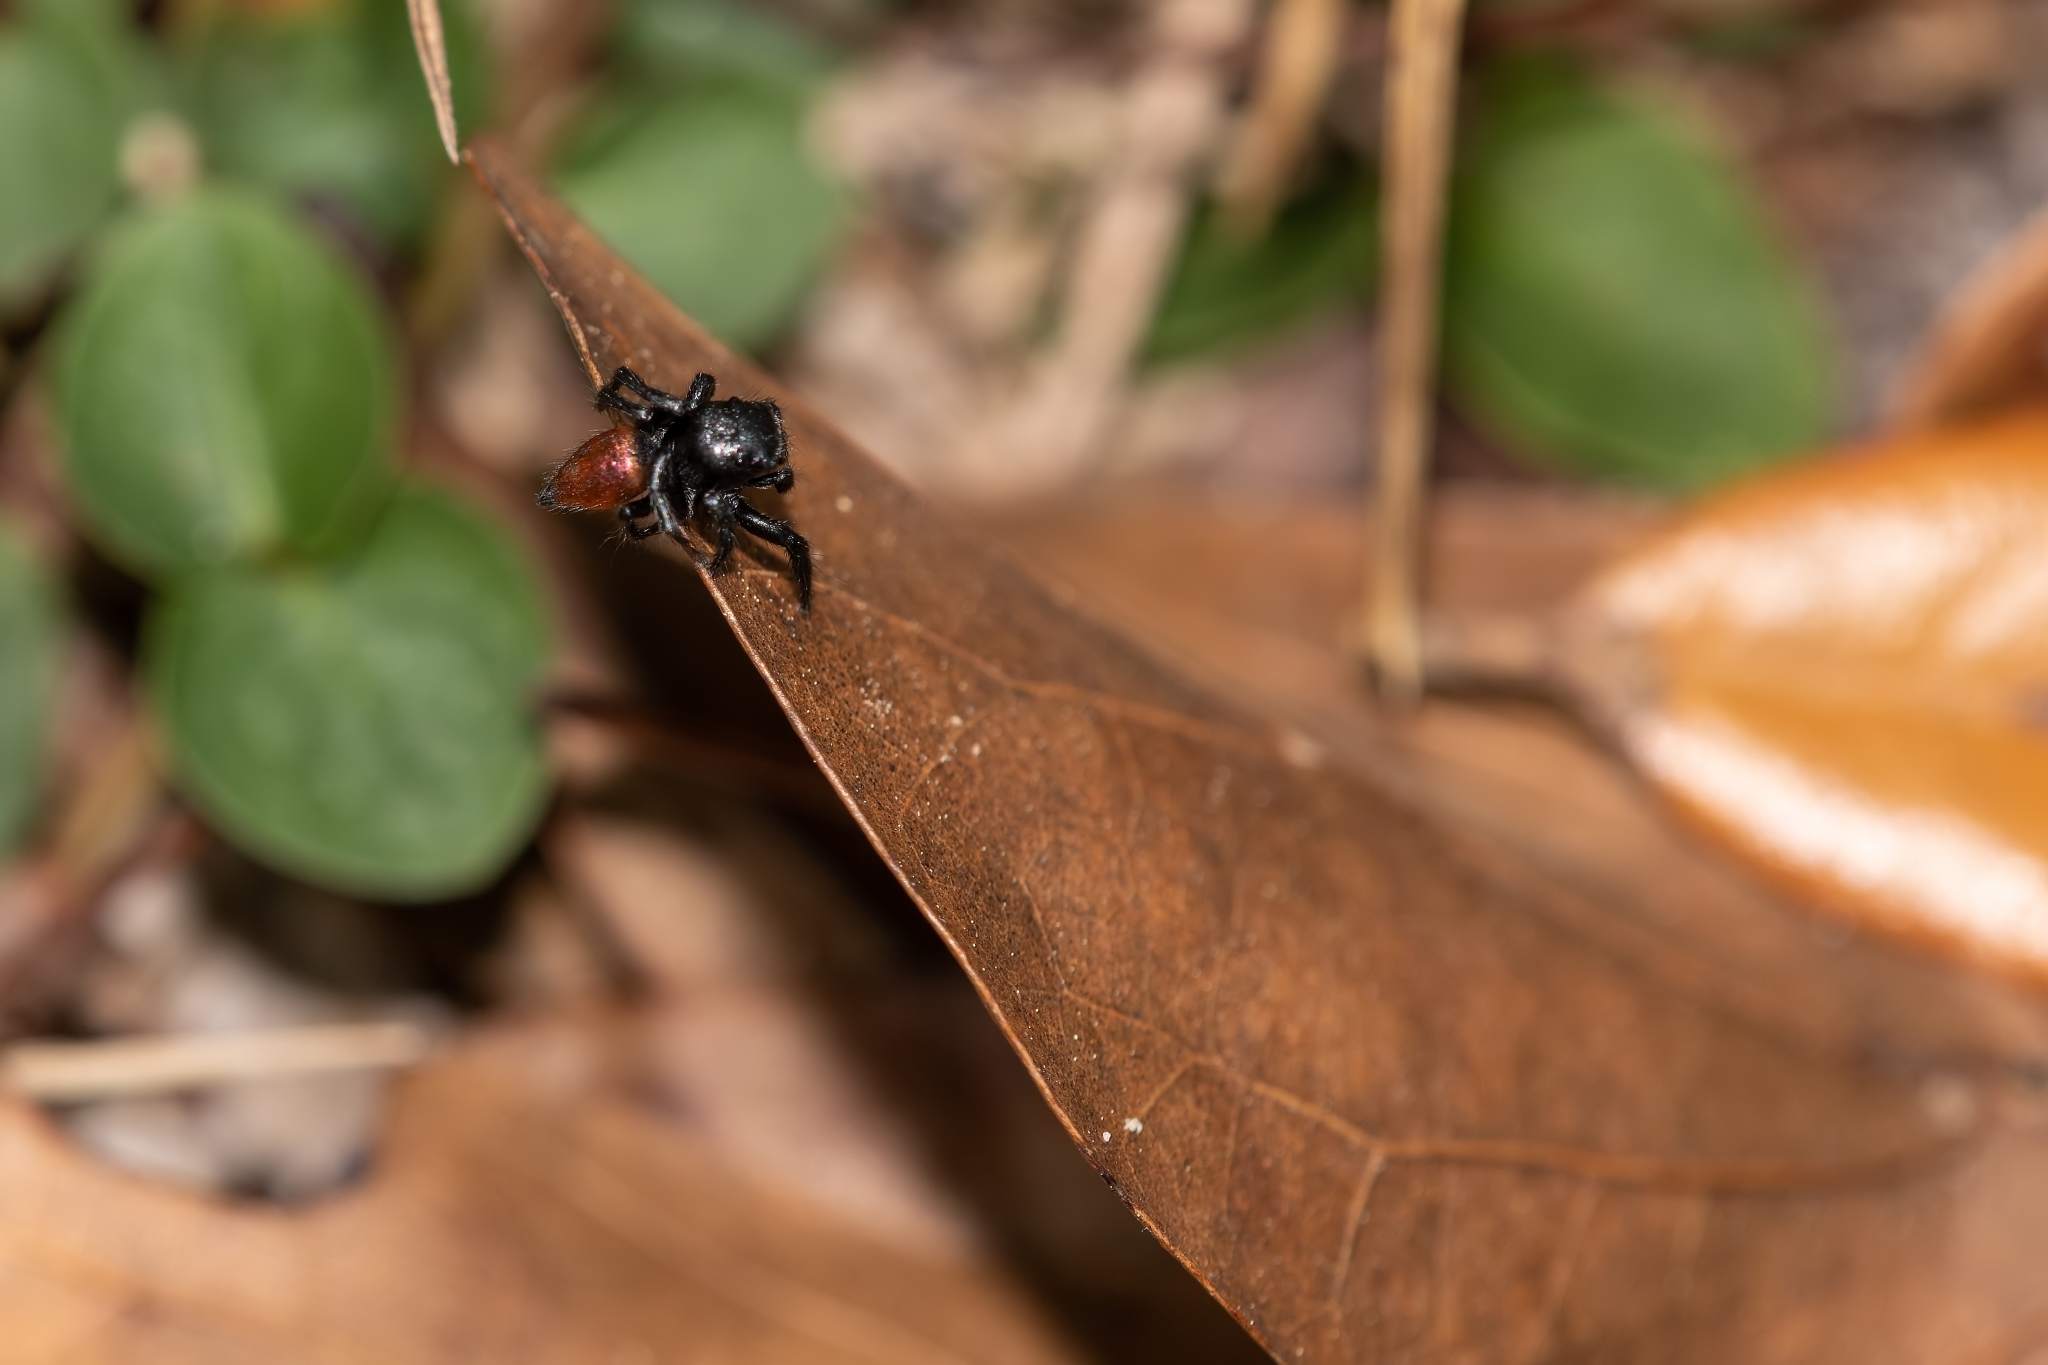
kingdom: Animalia
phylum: Arthropoda
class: Arachnida
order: Araneae
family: Salticidae
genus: Habronattus
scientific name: Habronattus decorus
